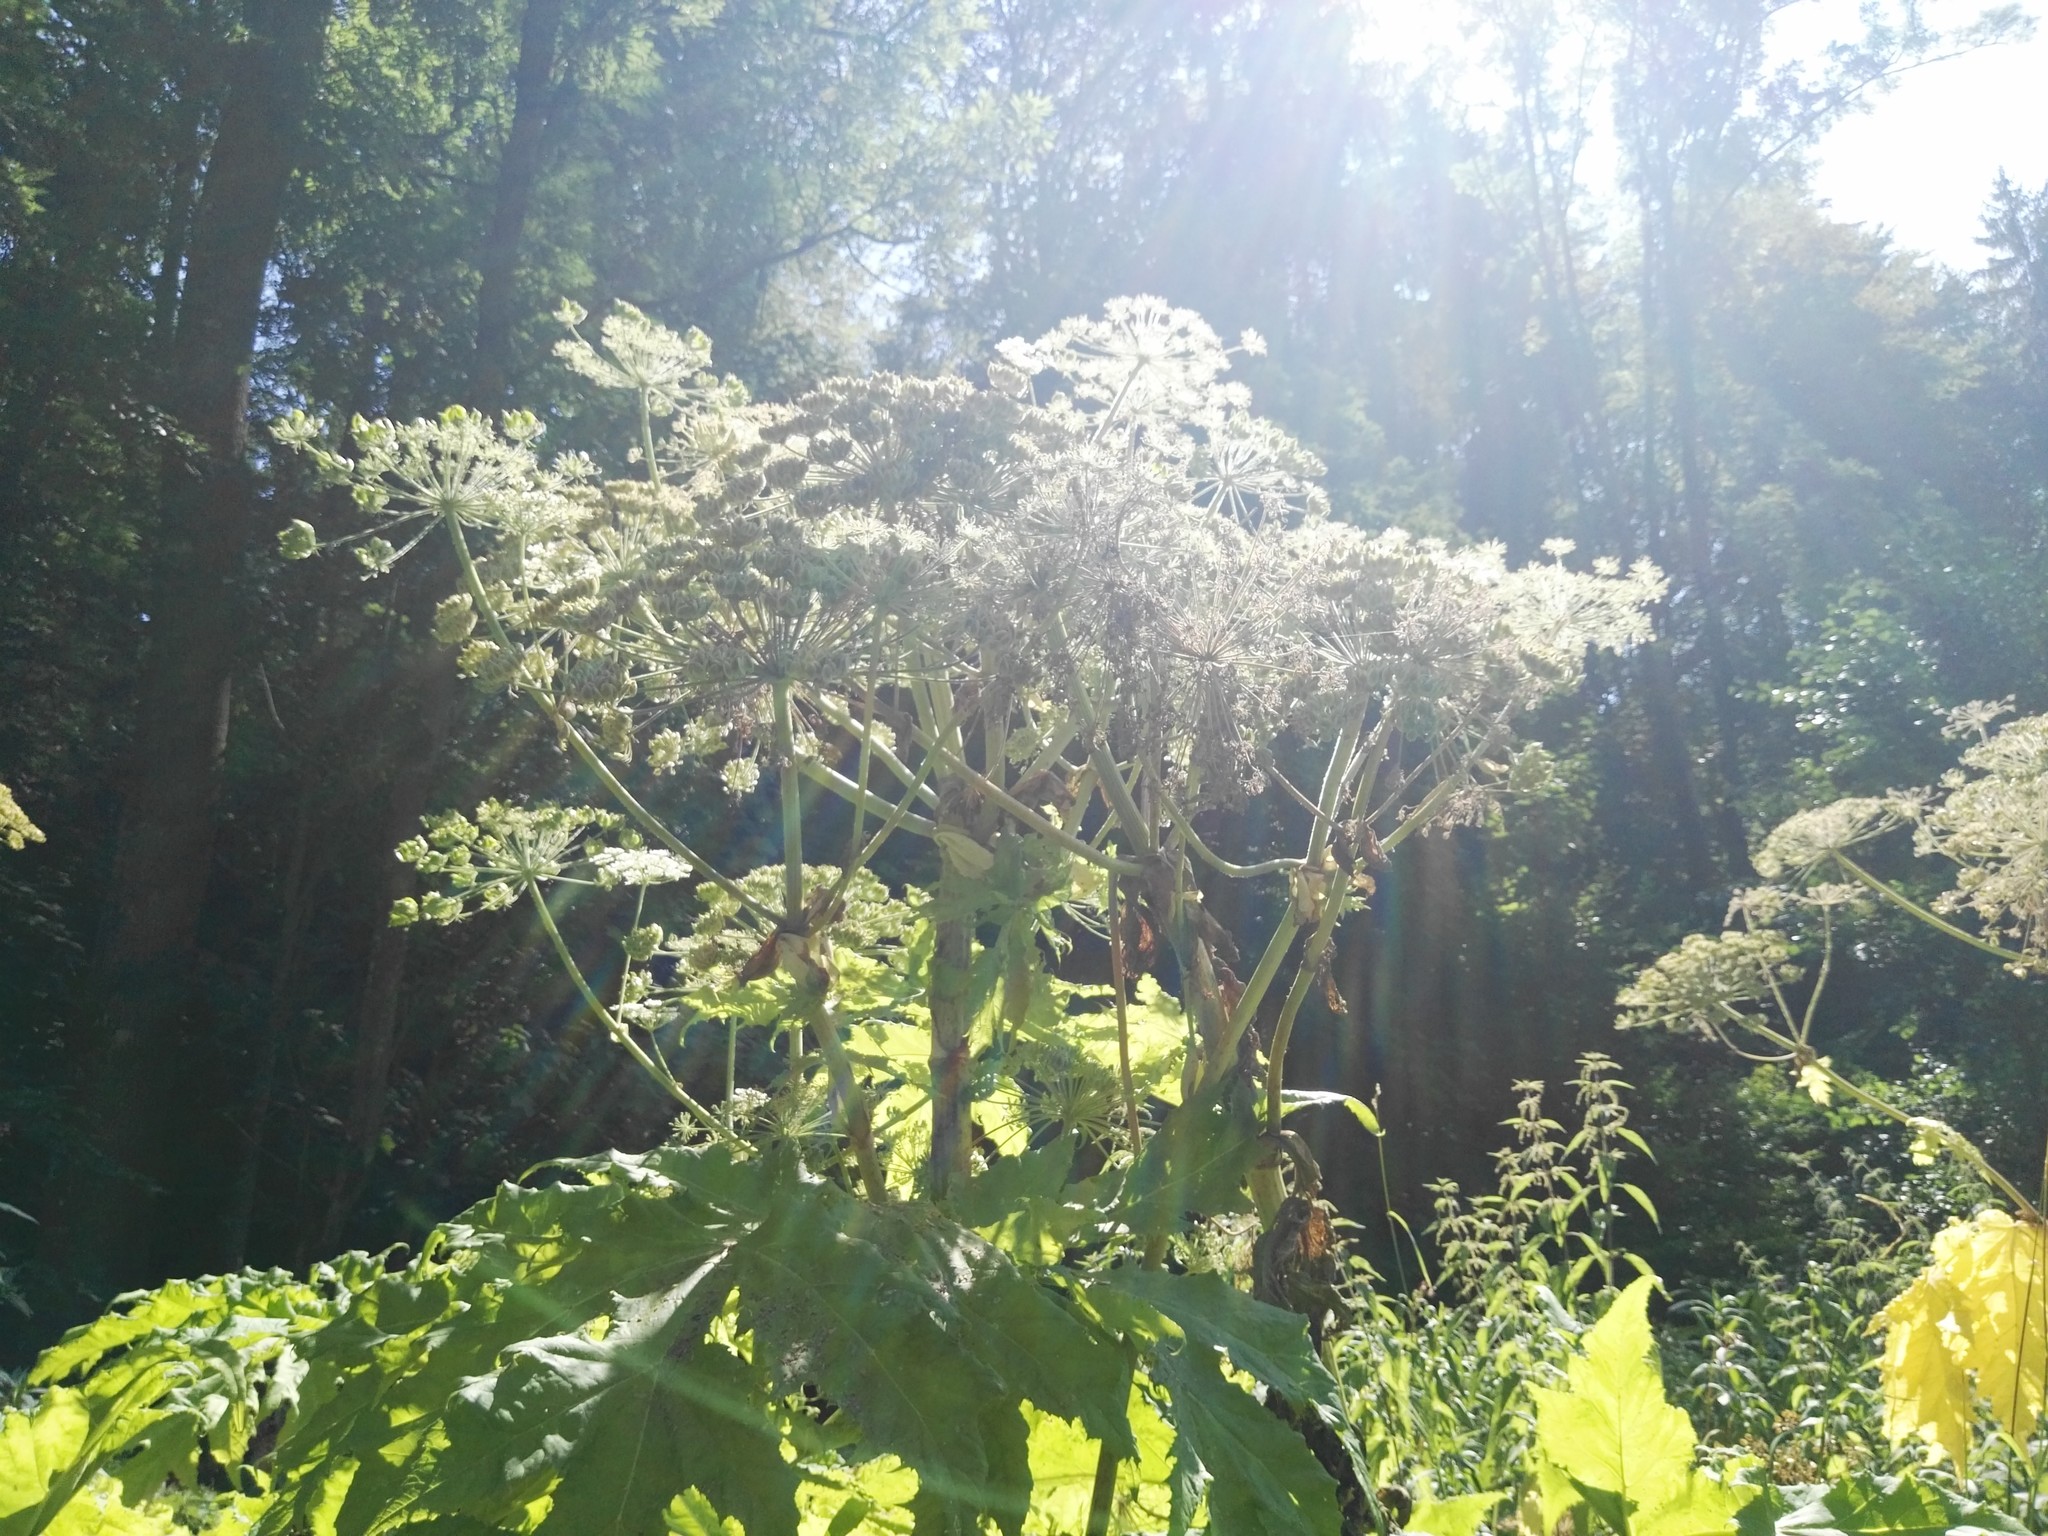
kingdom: Plantae
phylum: Tracheophyta
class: Magnoliopsida
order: Apiales
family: Apiaceae
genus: Heracleum
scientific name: Heracleum mantegazzianum
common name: Giant hogweed
